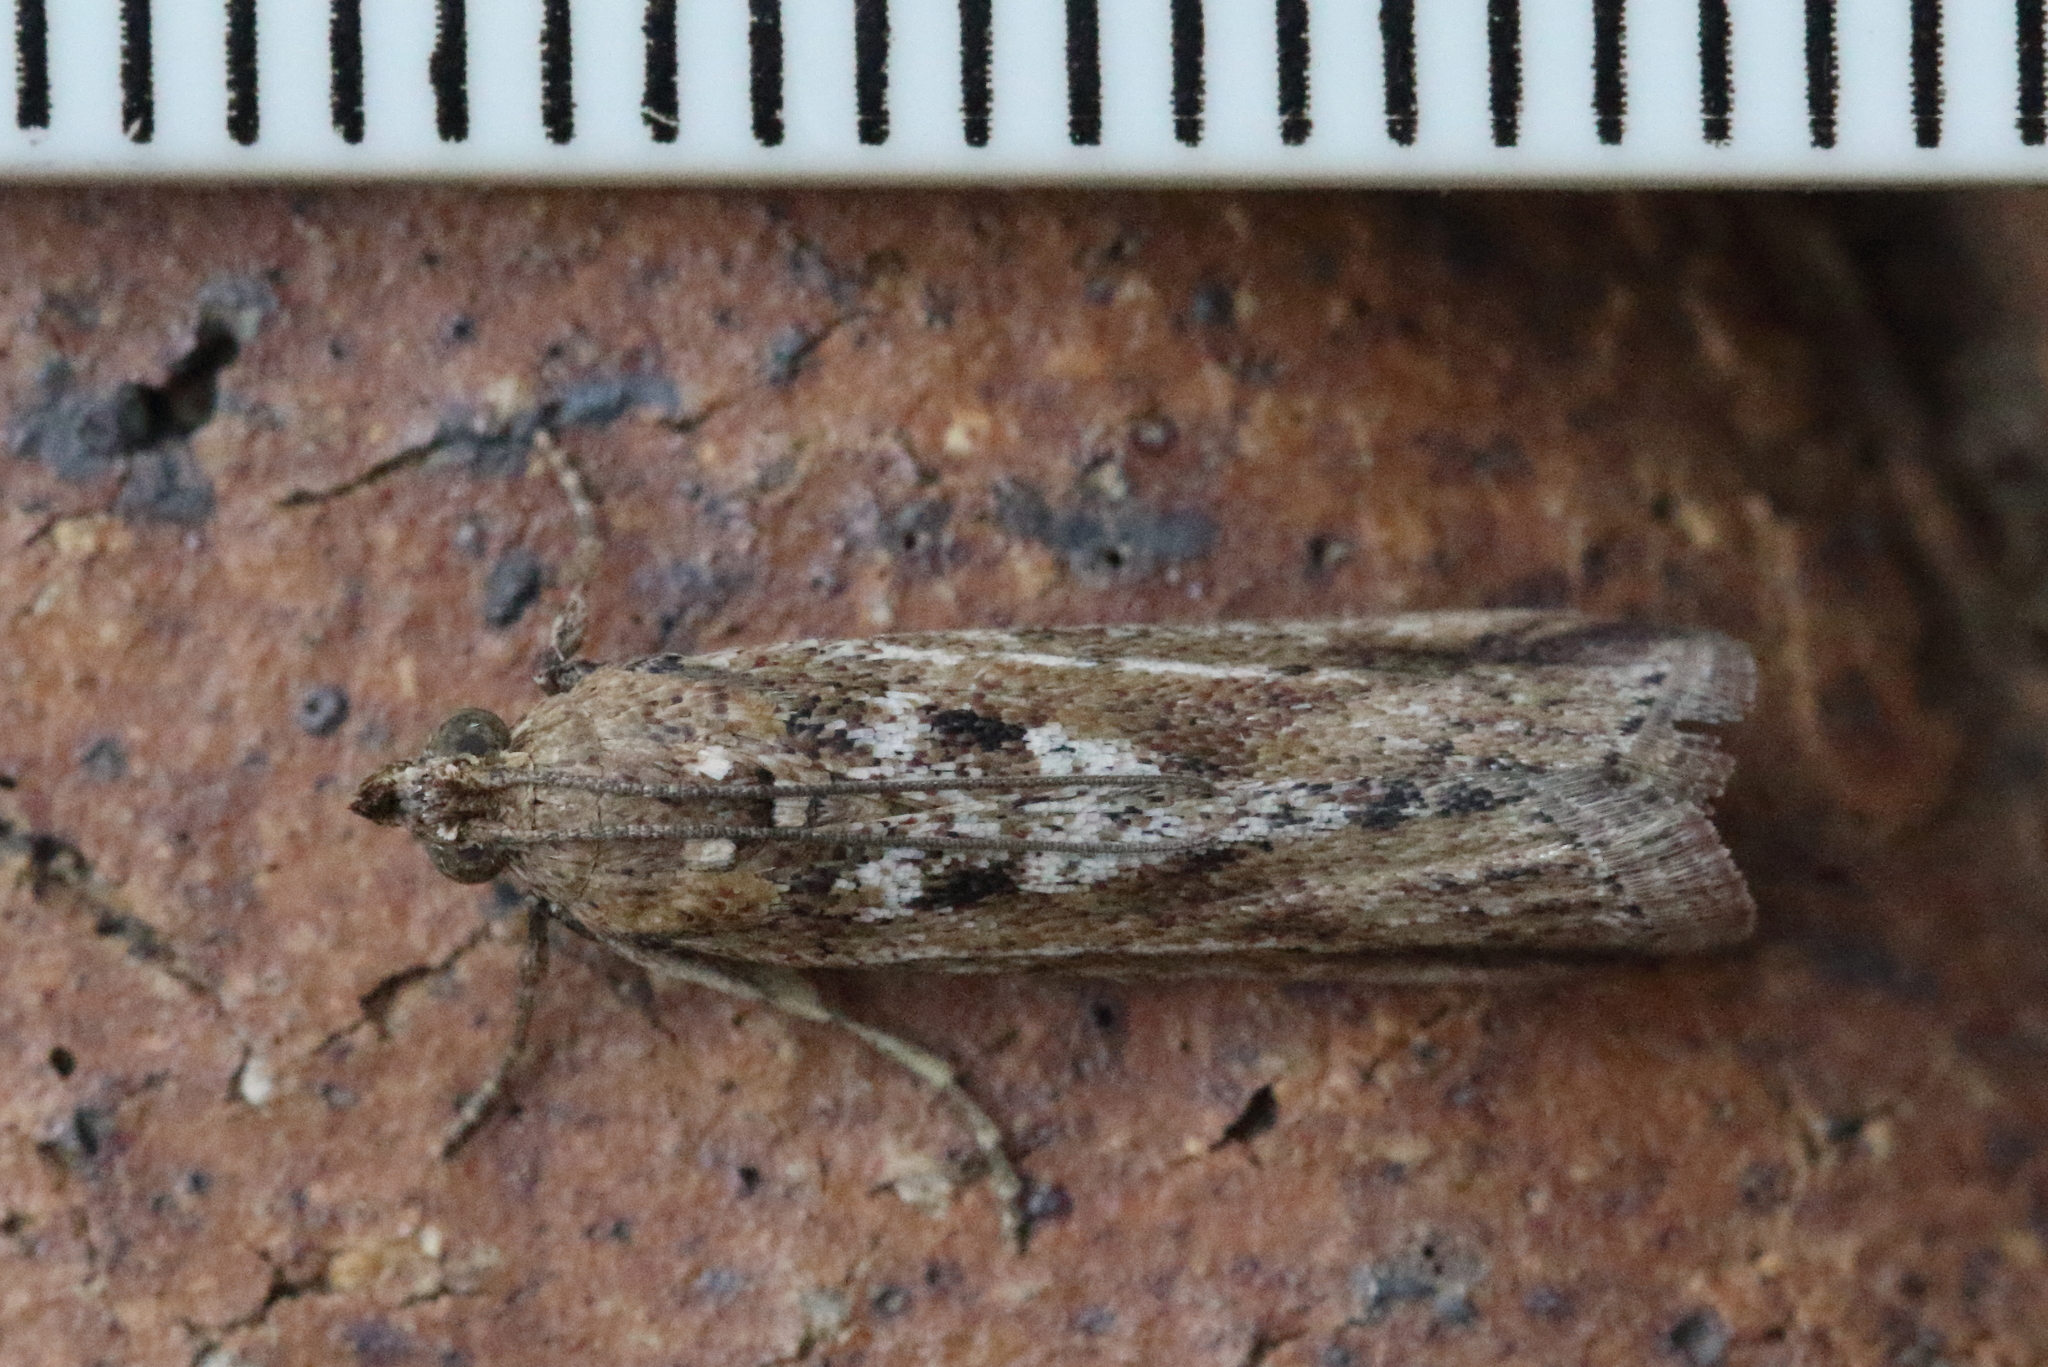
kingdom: Animalia
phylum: Arthropoda
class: Insecta
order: Lepidoptera
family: Pyralidae
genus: Faveria
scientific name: Faveria laiasalis
